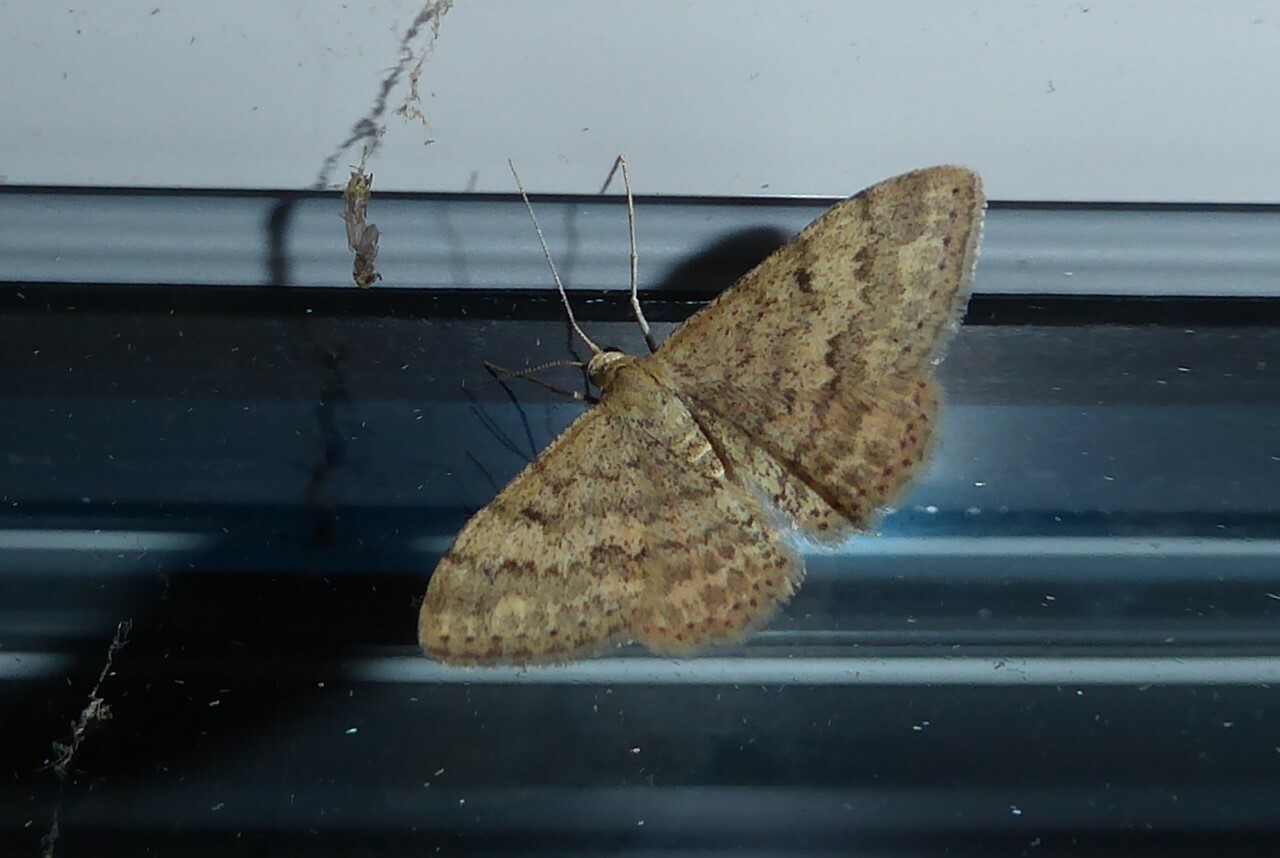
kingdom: Animalia
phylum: Arthropoda
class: Insecta
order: Lepidoptera
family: Geometridae
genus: Scopula
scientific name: Scopula rubraria
